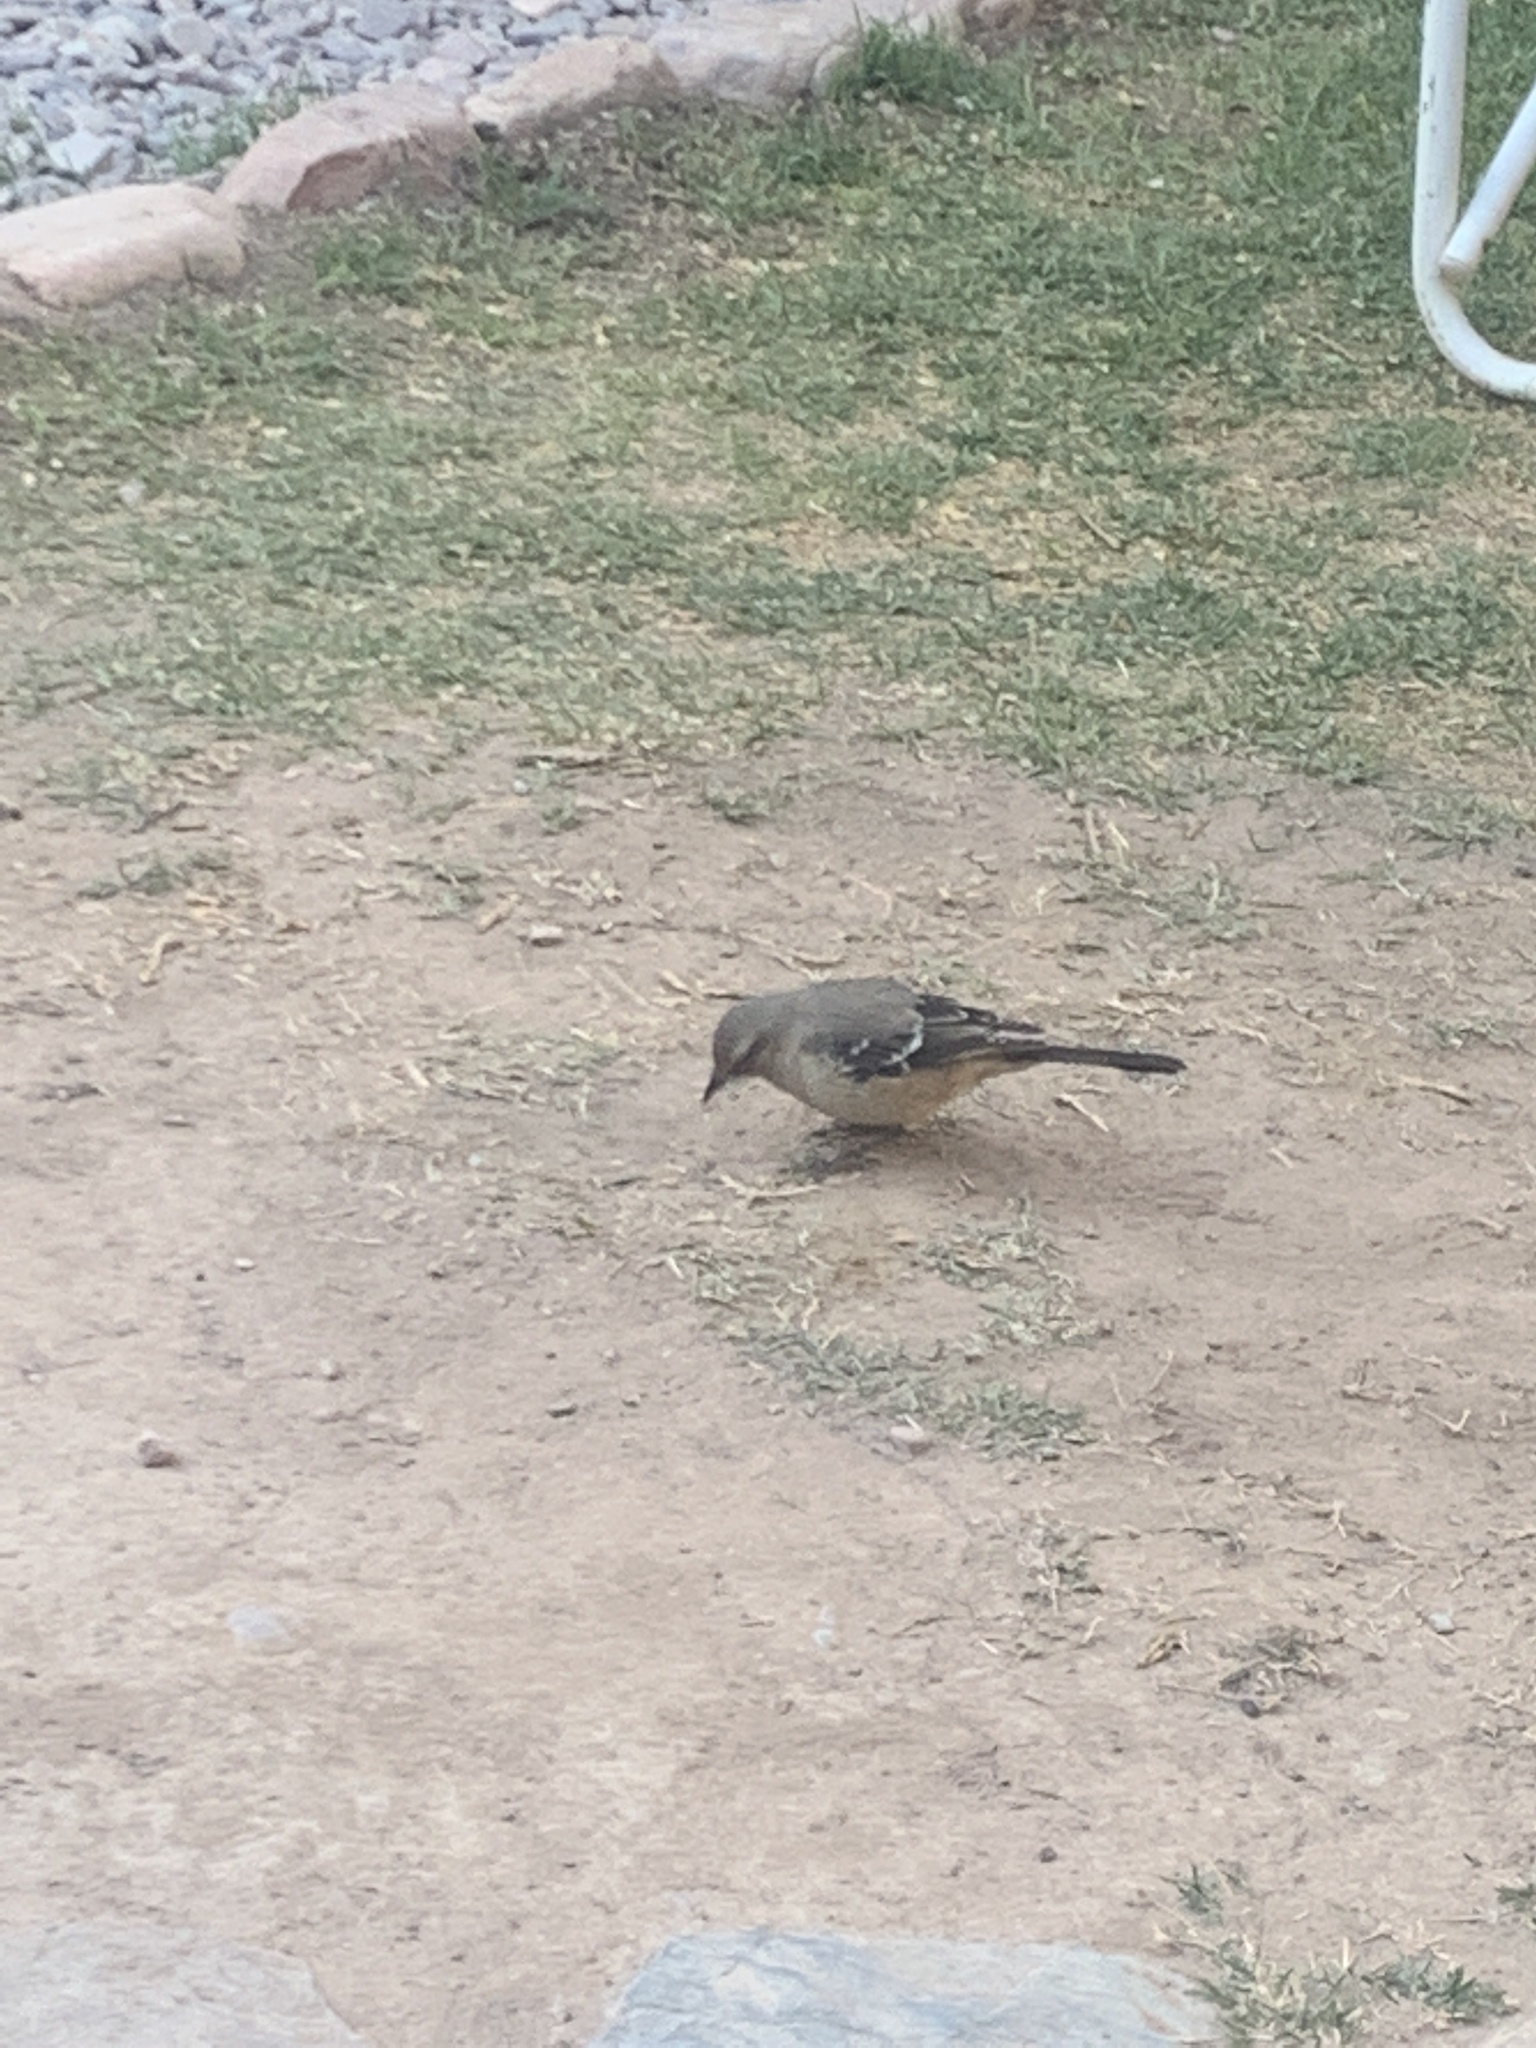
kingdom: Animalia
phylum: Chordata
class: Aves
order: Passeriformes
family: Mimidae
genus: Mimus
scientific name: Mimus patagonicus
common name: Patagonian mockingbird
